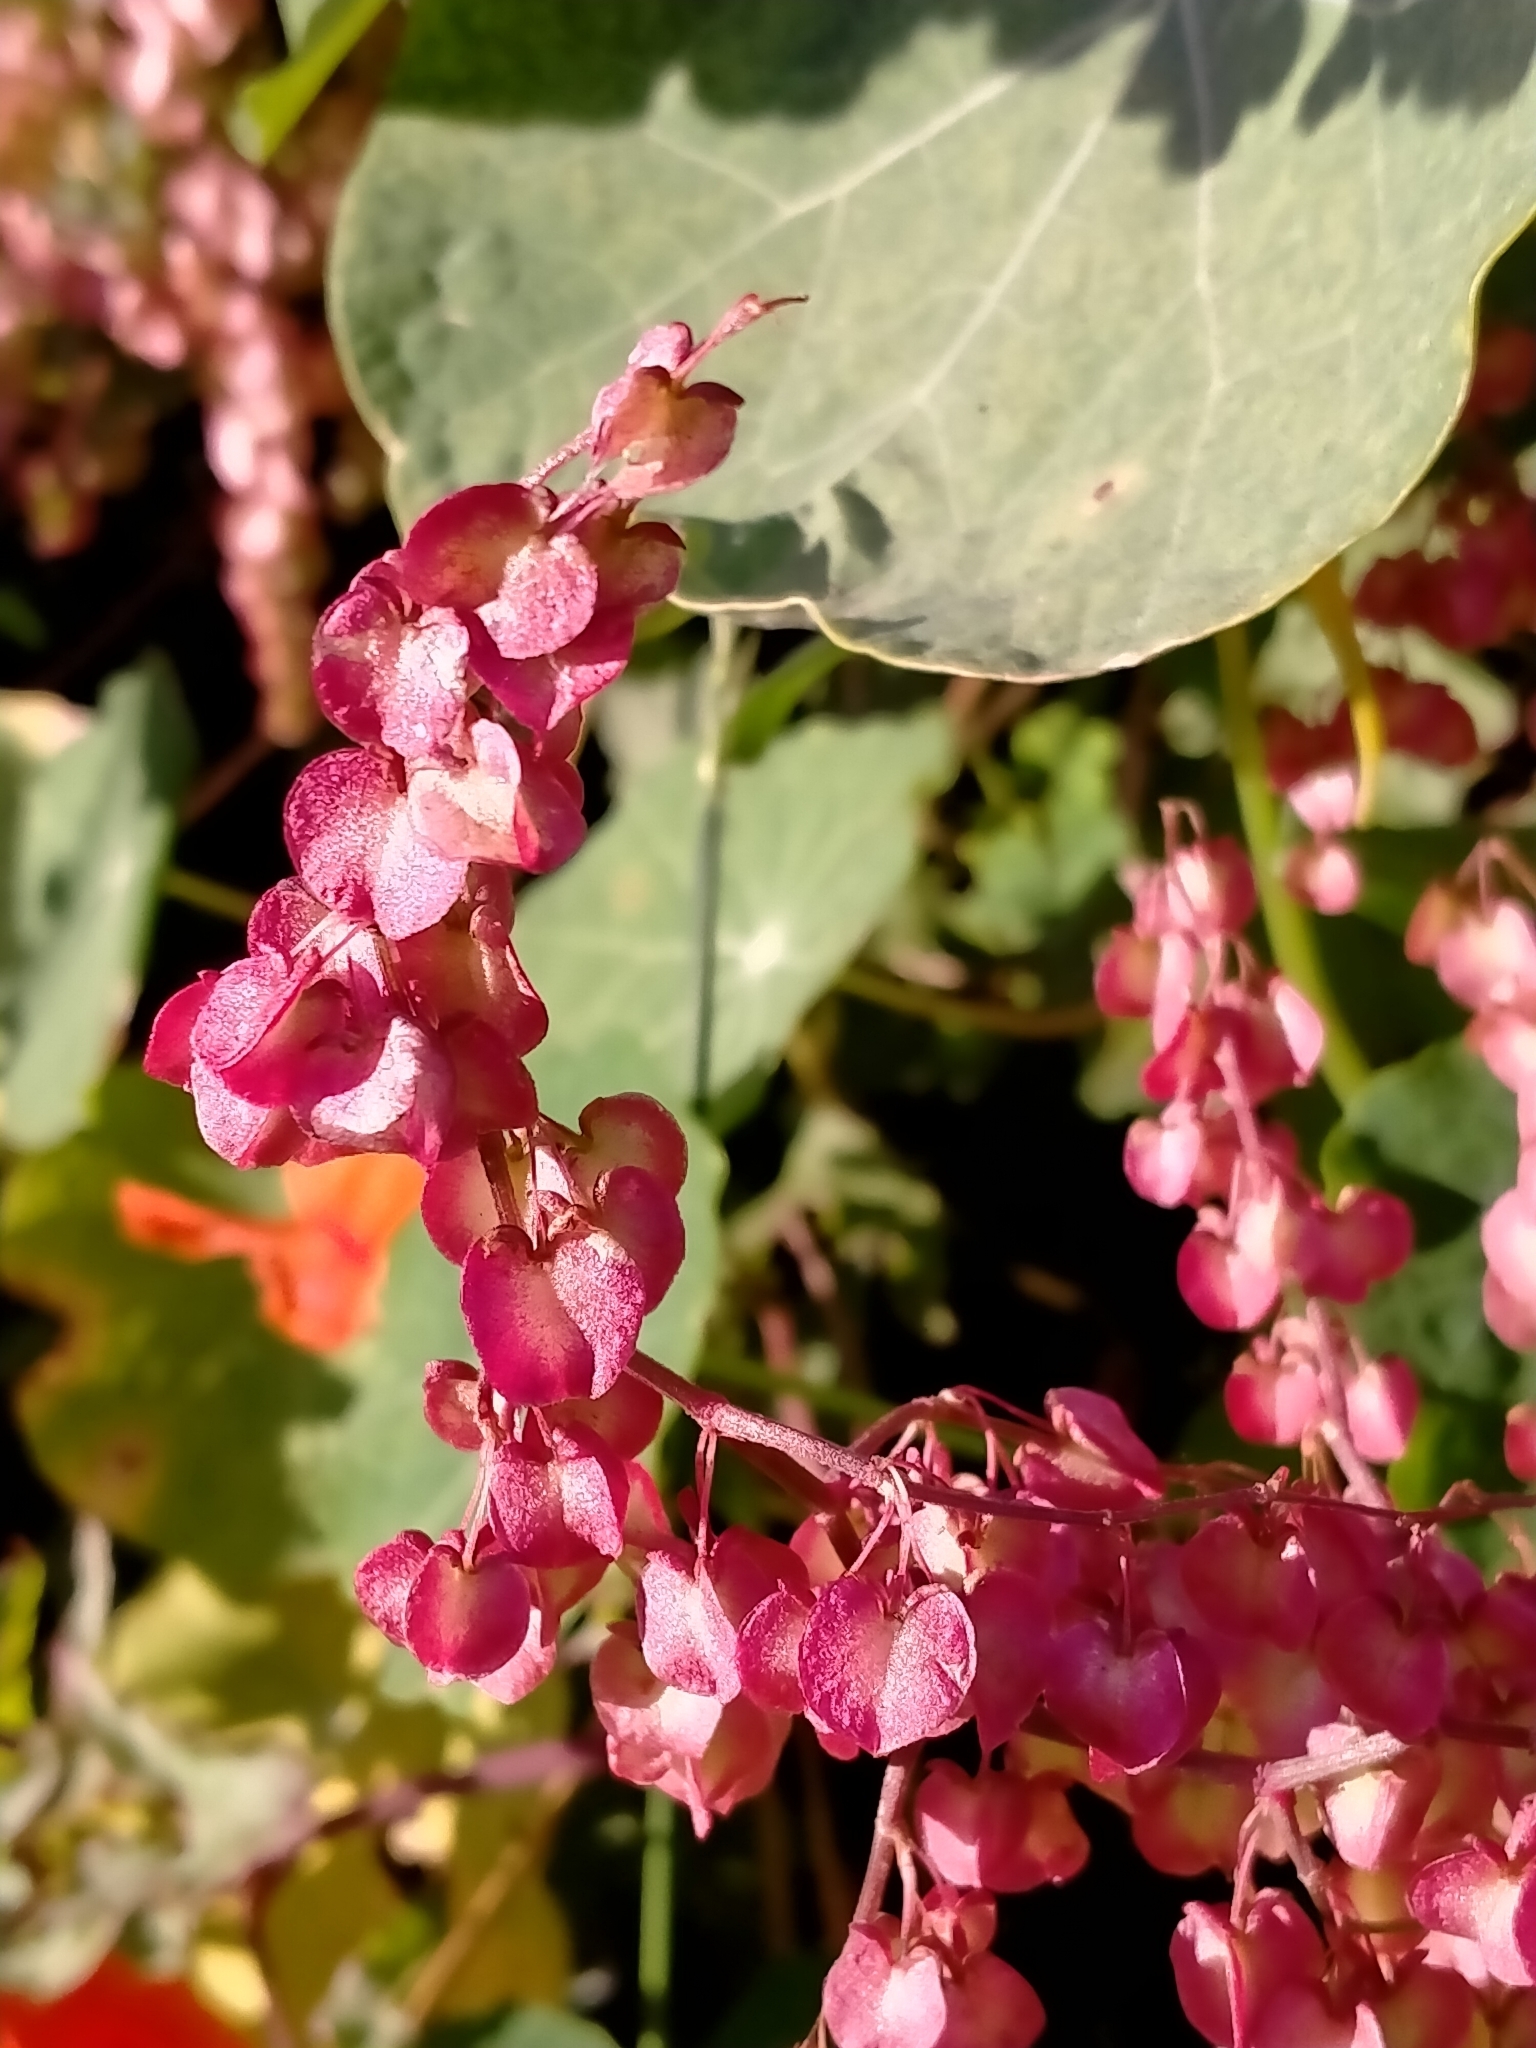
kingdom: Plantae
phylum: Tracheophyta
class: Magnoliopsida
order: Caryophyllales
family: Polygonaceae
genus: Rumex
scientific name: Rumex sagittatus
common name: Climbing dock
